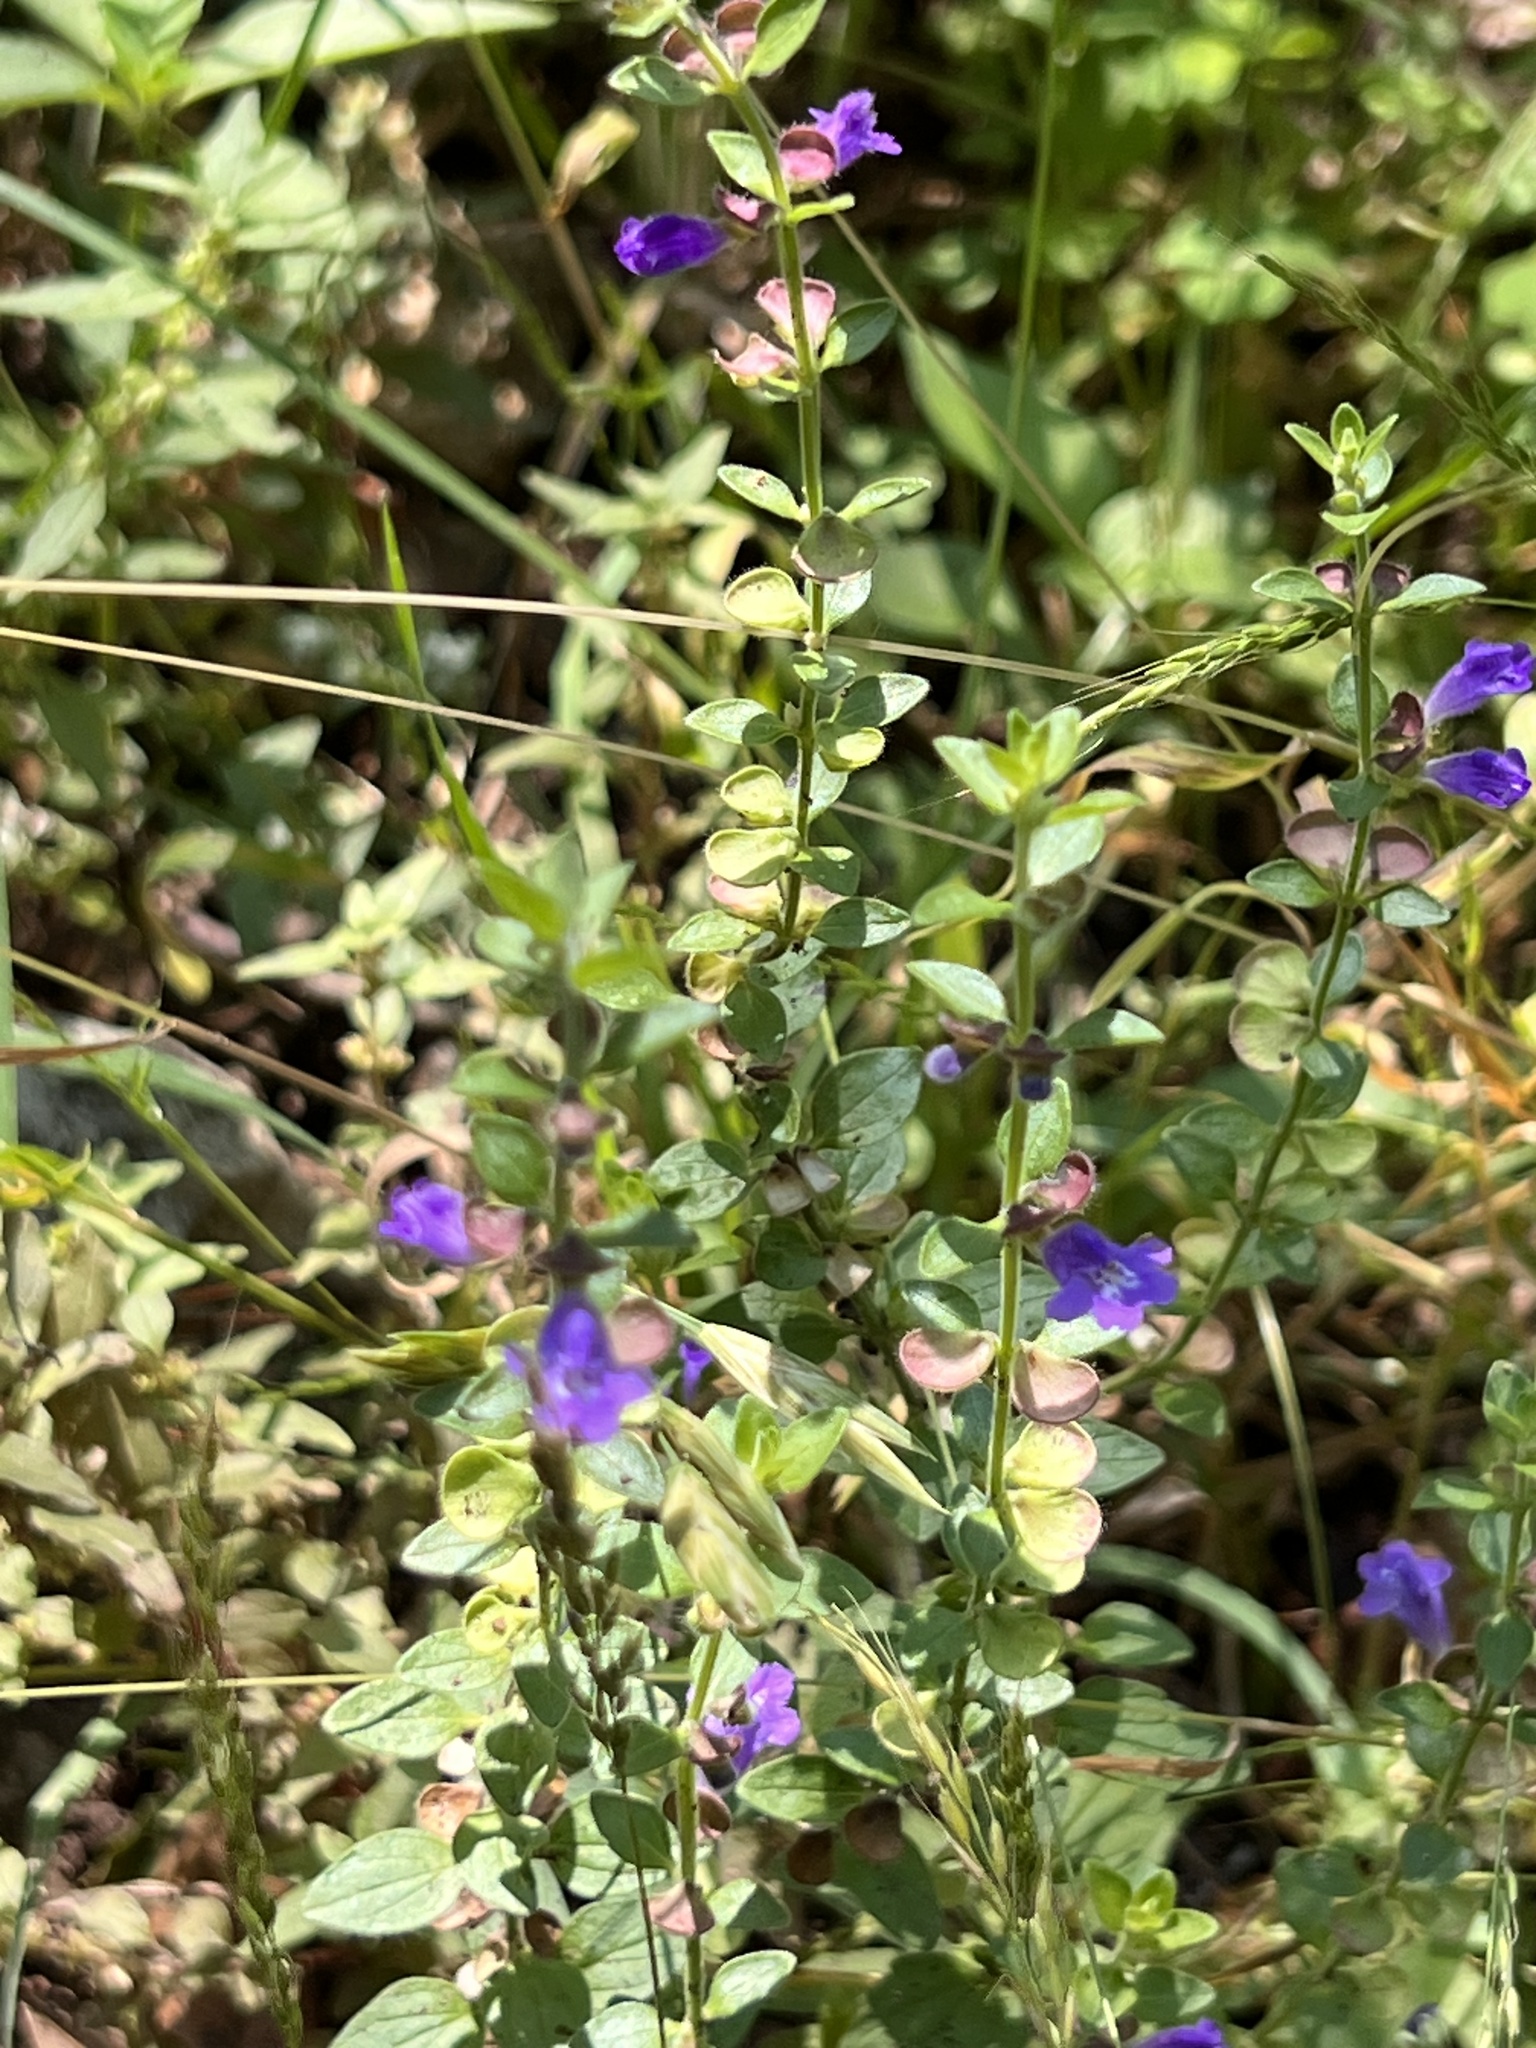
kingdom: Plantae
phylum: Tracheophyta
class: Magnoliopsida
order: Lamiales
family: Lamiaceae
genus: Scutellaria
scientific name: Scutellaria drummondii
